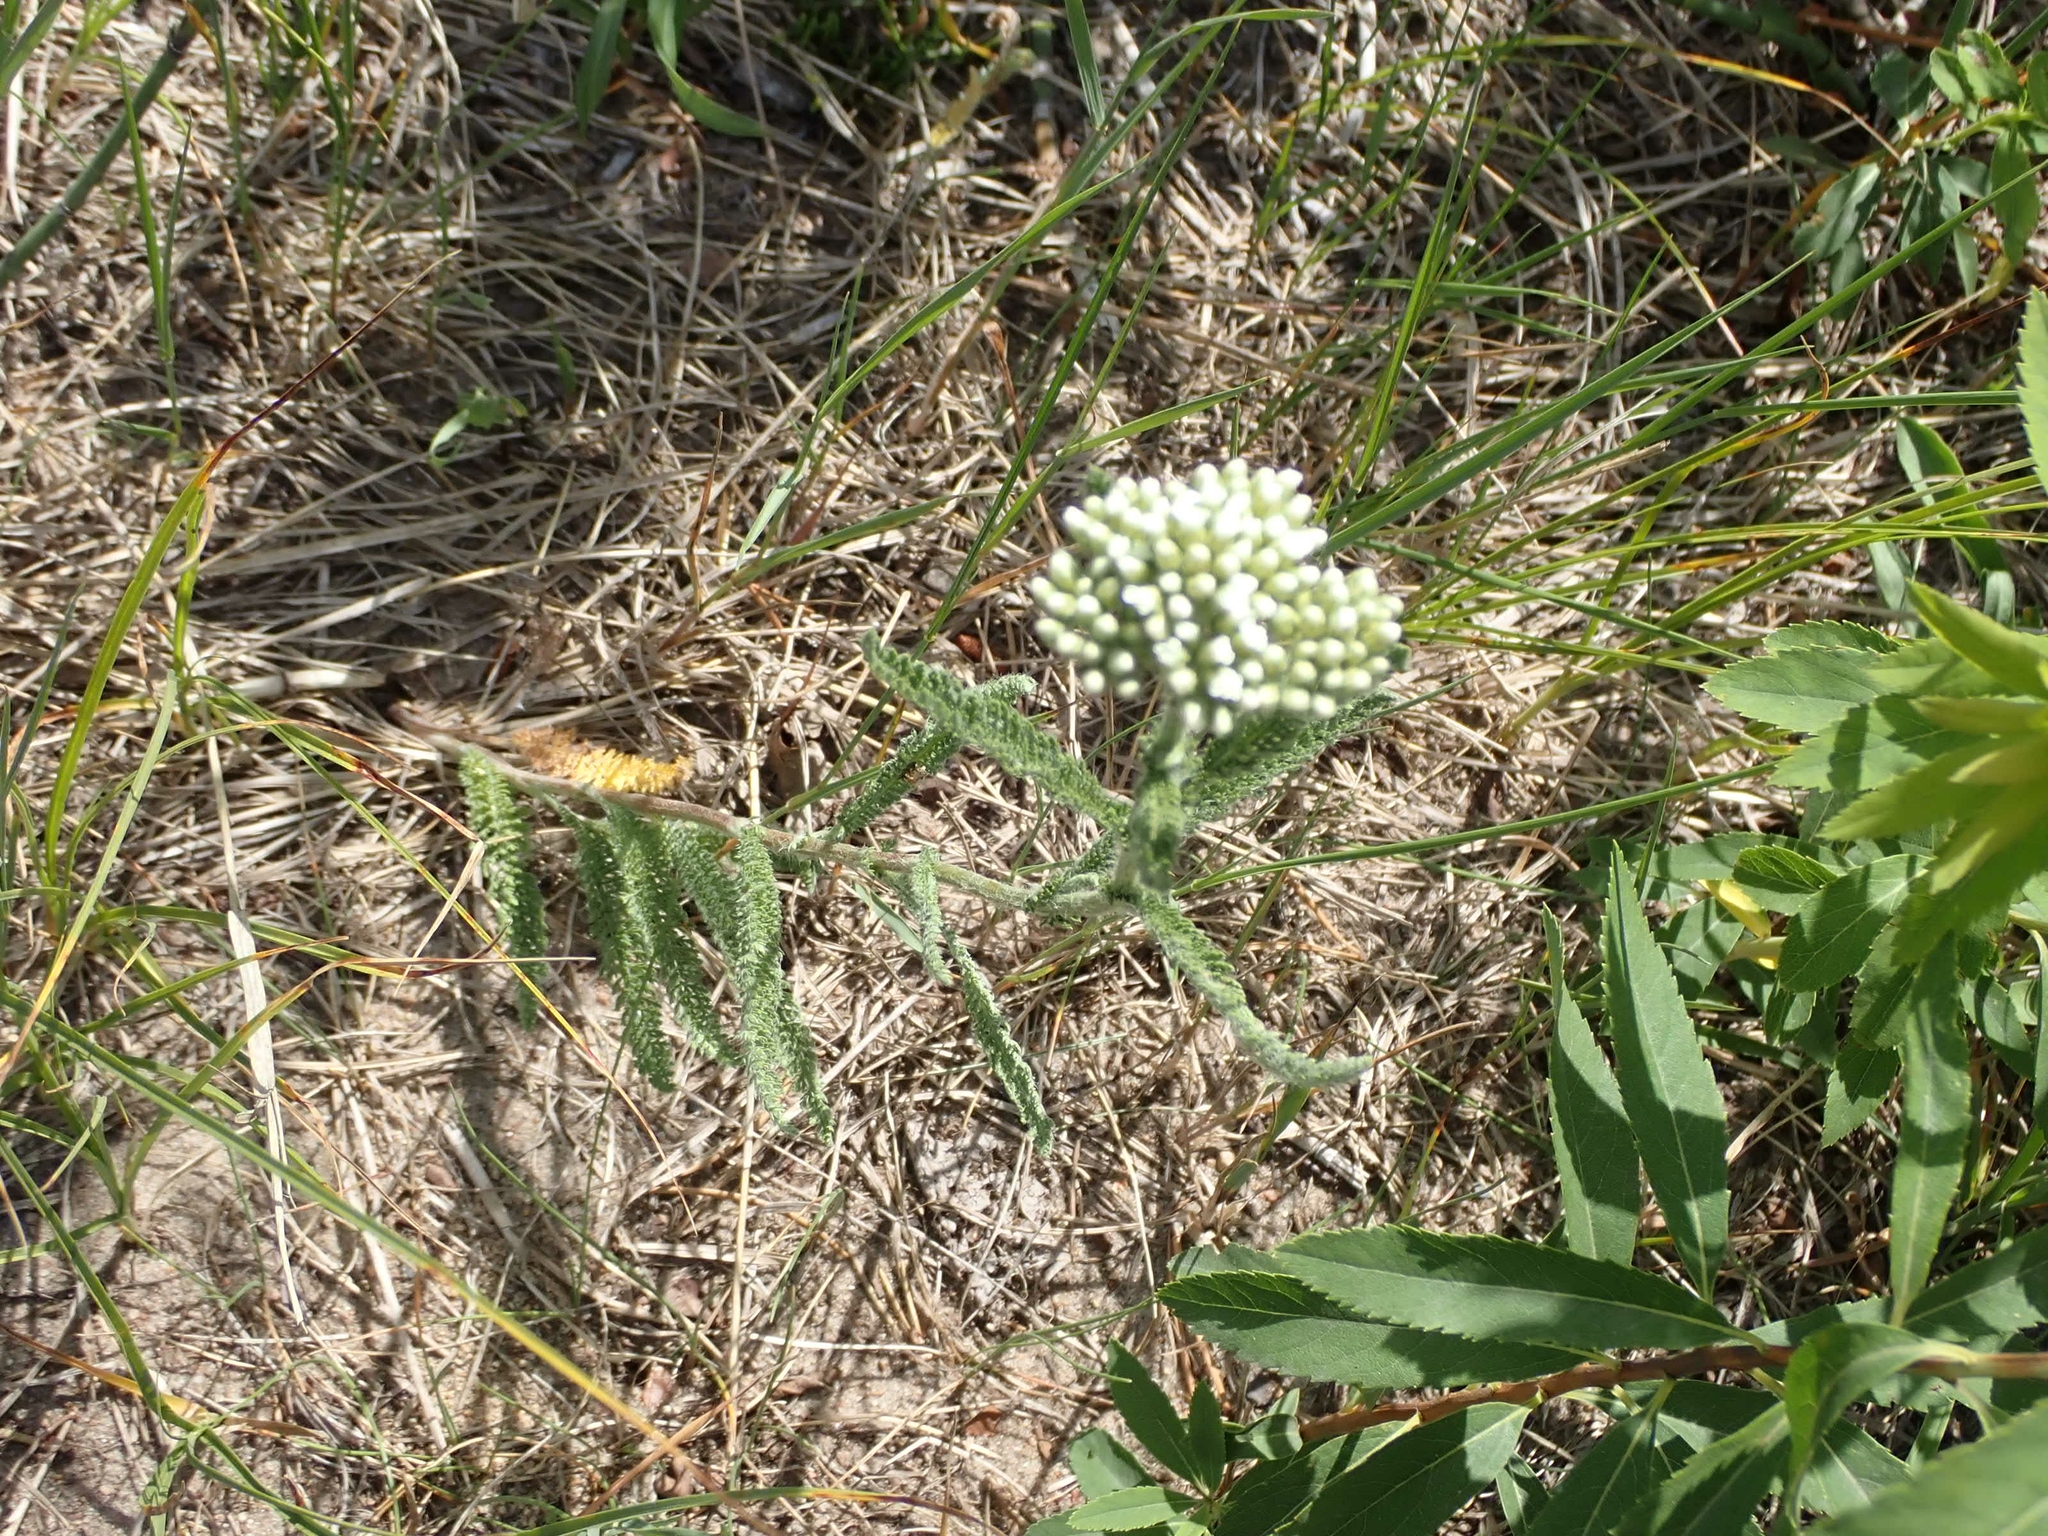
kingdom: Plantae
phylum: Tracheophyta
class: Magnoliopsida
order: Asterales
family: Asteraceae
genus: Achillea
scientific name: Achillea millefolium
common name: Yarrow
